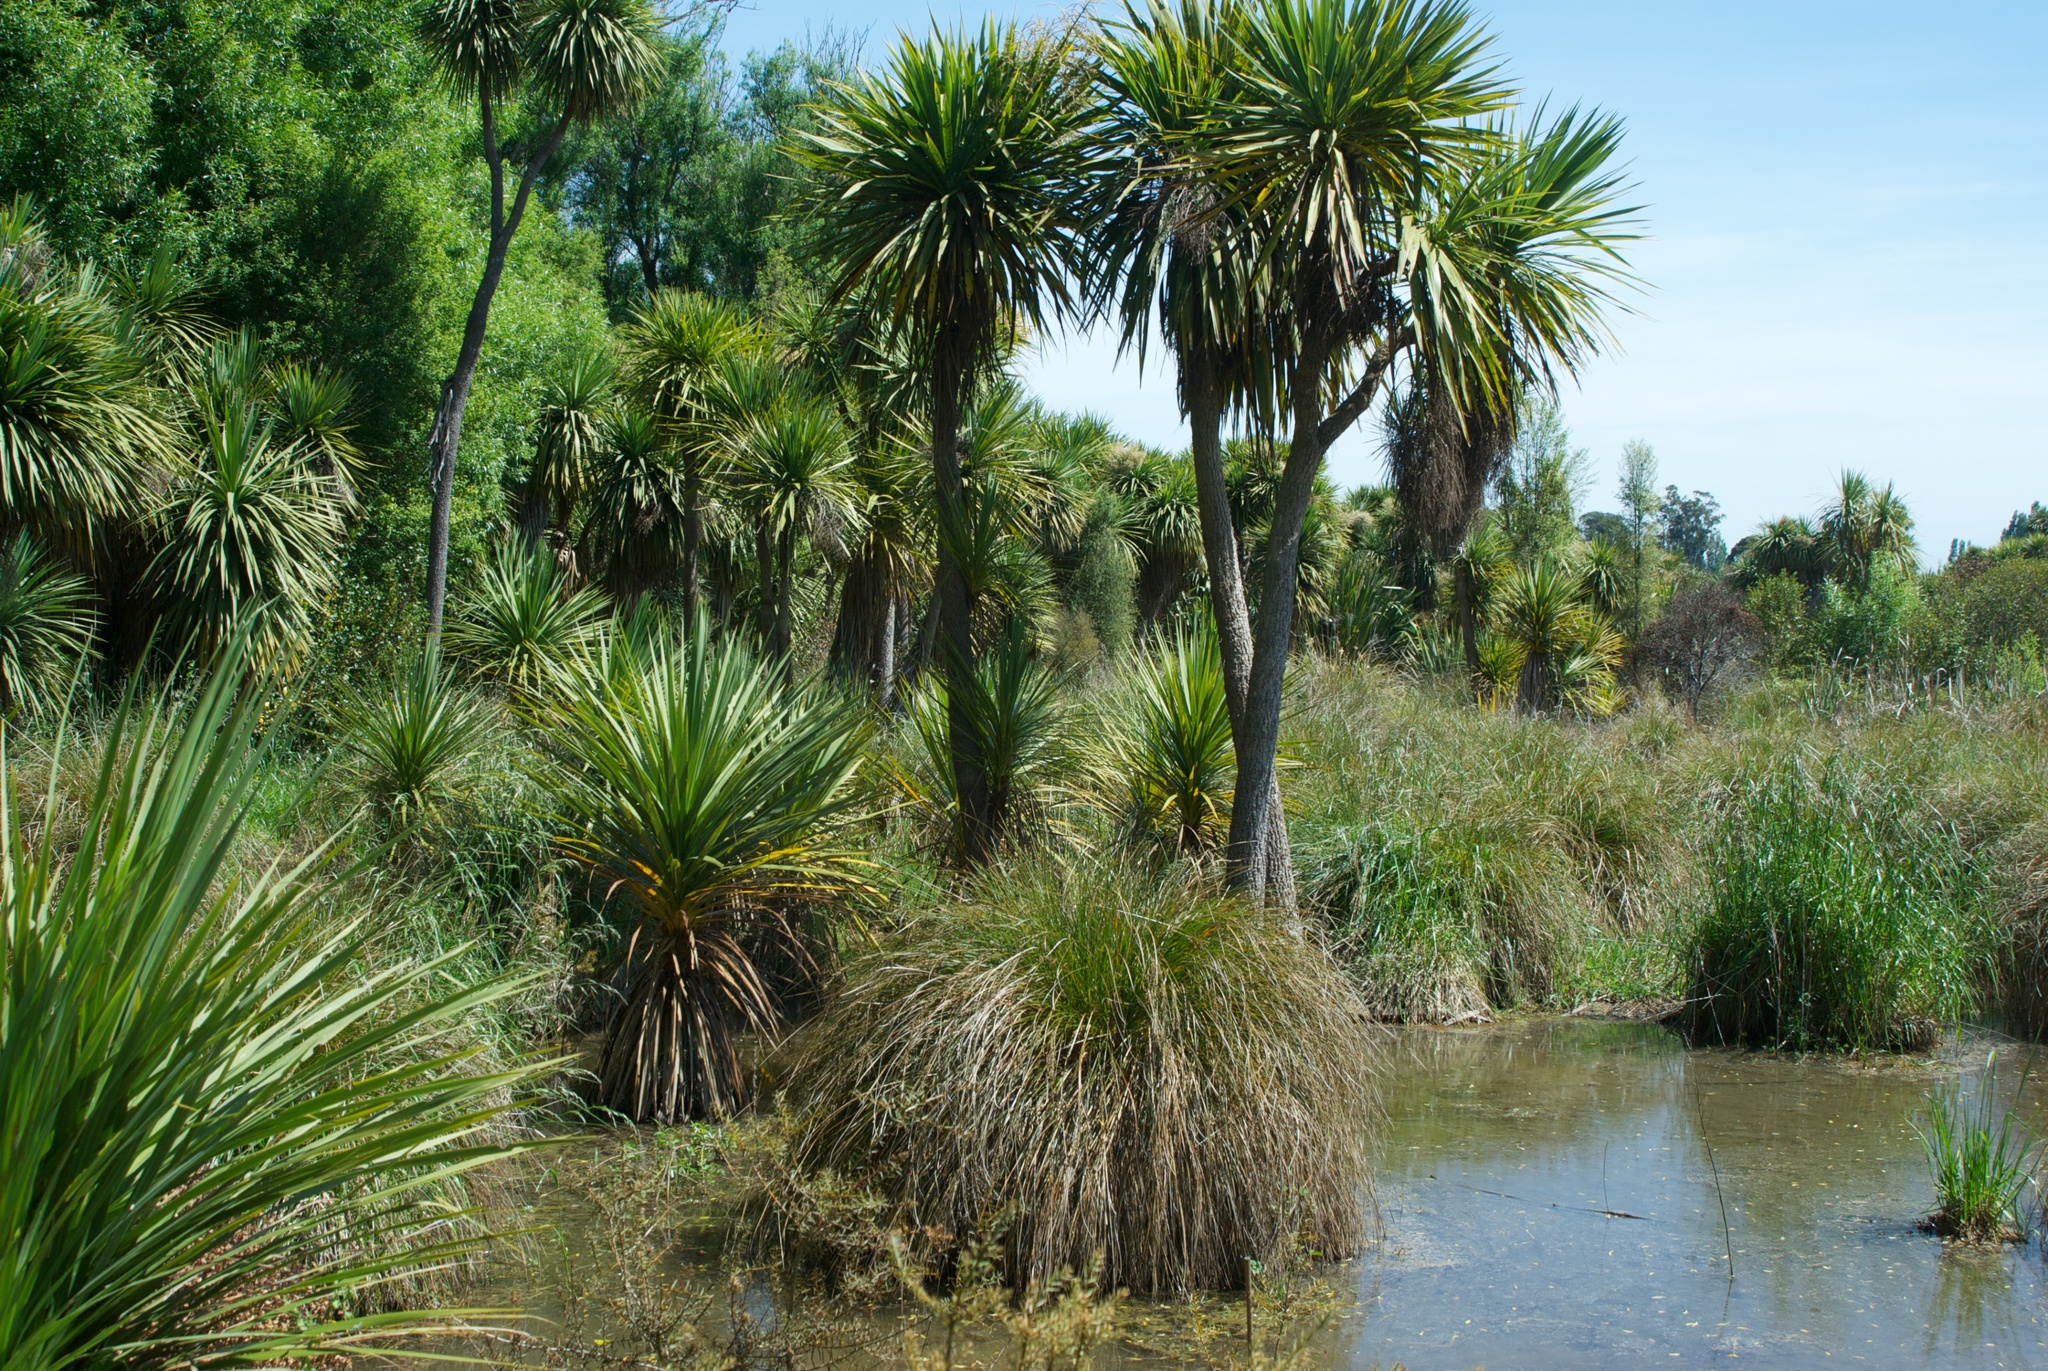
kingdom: Plantae
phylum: Tracheophyta
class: Liliopsida
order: Poales
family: Cyperaceae
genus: Carex
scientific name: Carex secta
